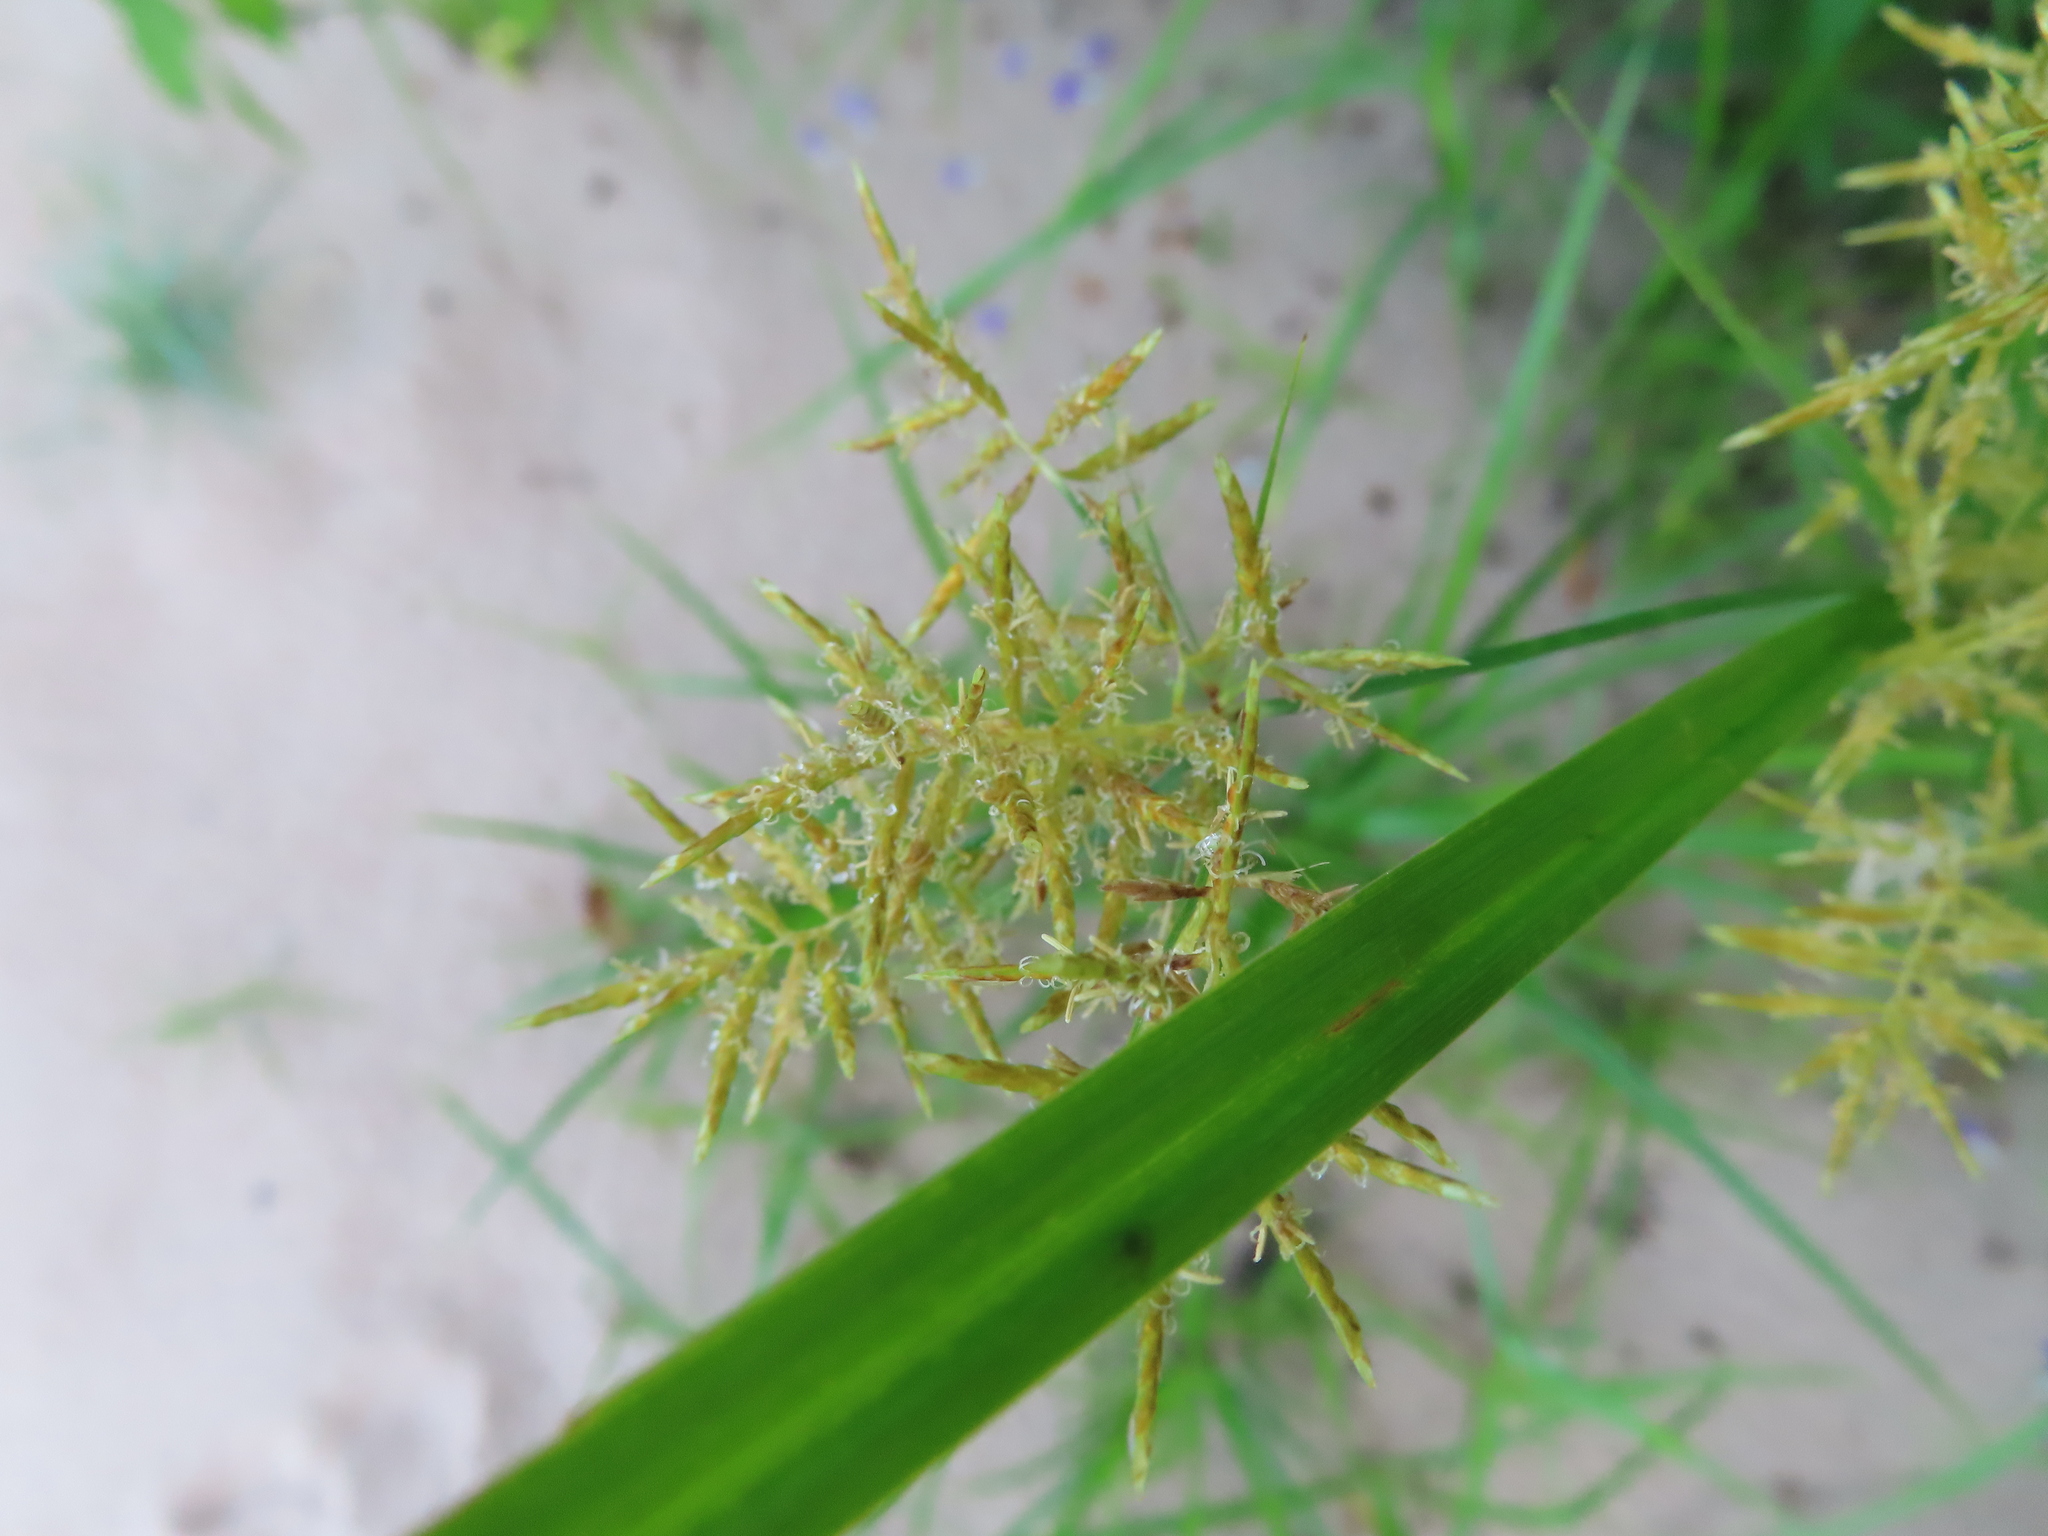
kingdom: Plantae
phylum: Tracheophyta
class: Liliopsida
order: Poales
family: Cyperaceae
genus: Cyperus
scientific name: Cyperus esculentus
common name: Yellow nutsedge
